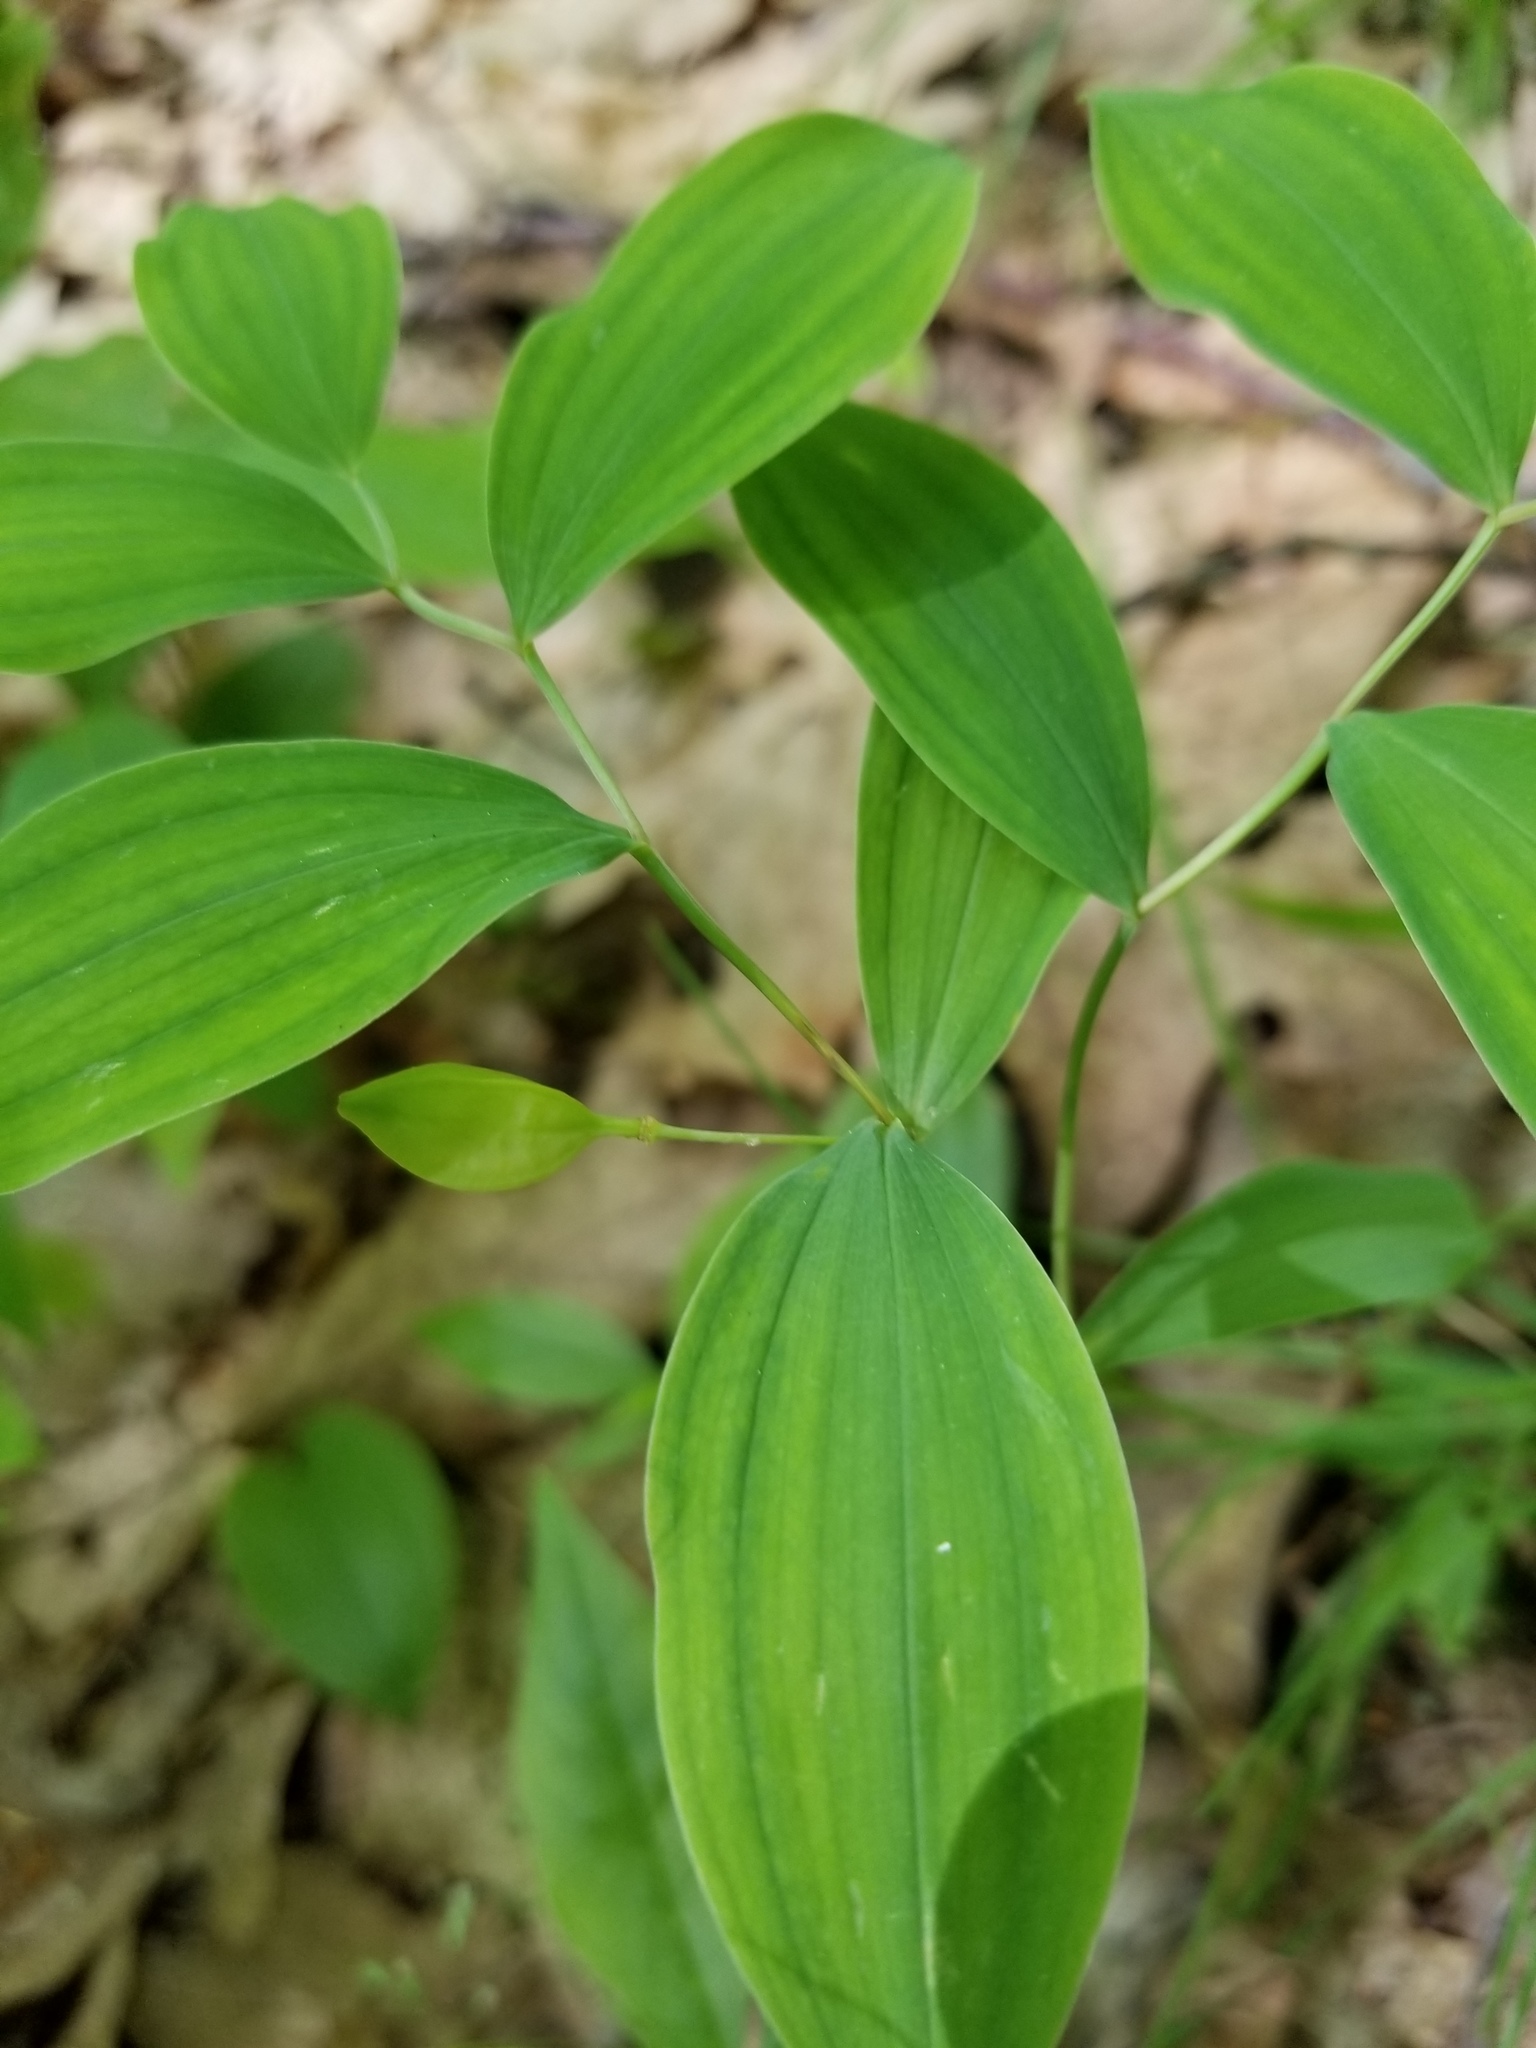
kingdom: Plantae
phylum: Tracheophyta
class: Liliopsida
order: Liliales
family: Colchicaceae
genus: Uvularia
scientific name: Uvularia sessilifolia
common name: Straw-lily
